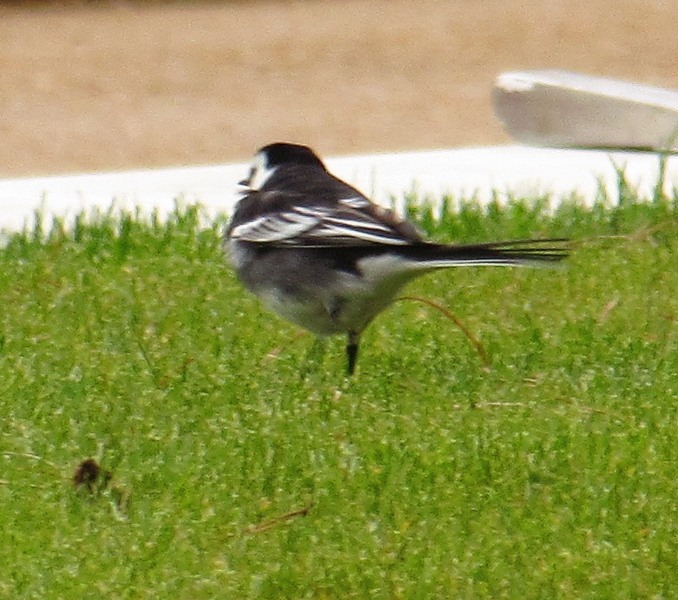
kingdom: Animalia
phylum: Chordata
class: Aves
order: Passeriformes
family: Motacillidae
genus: Motacilla
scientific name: Motacilla alba
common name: White wagtail
